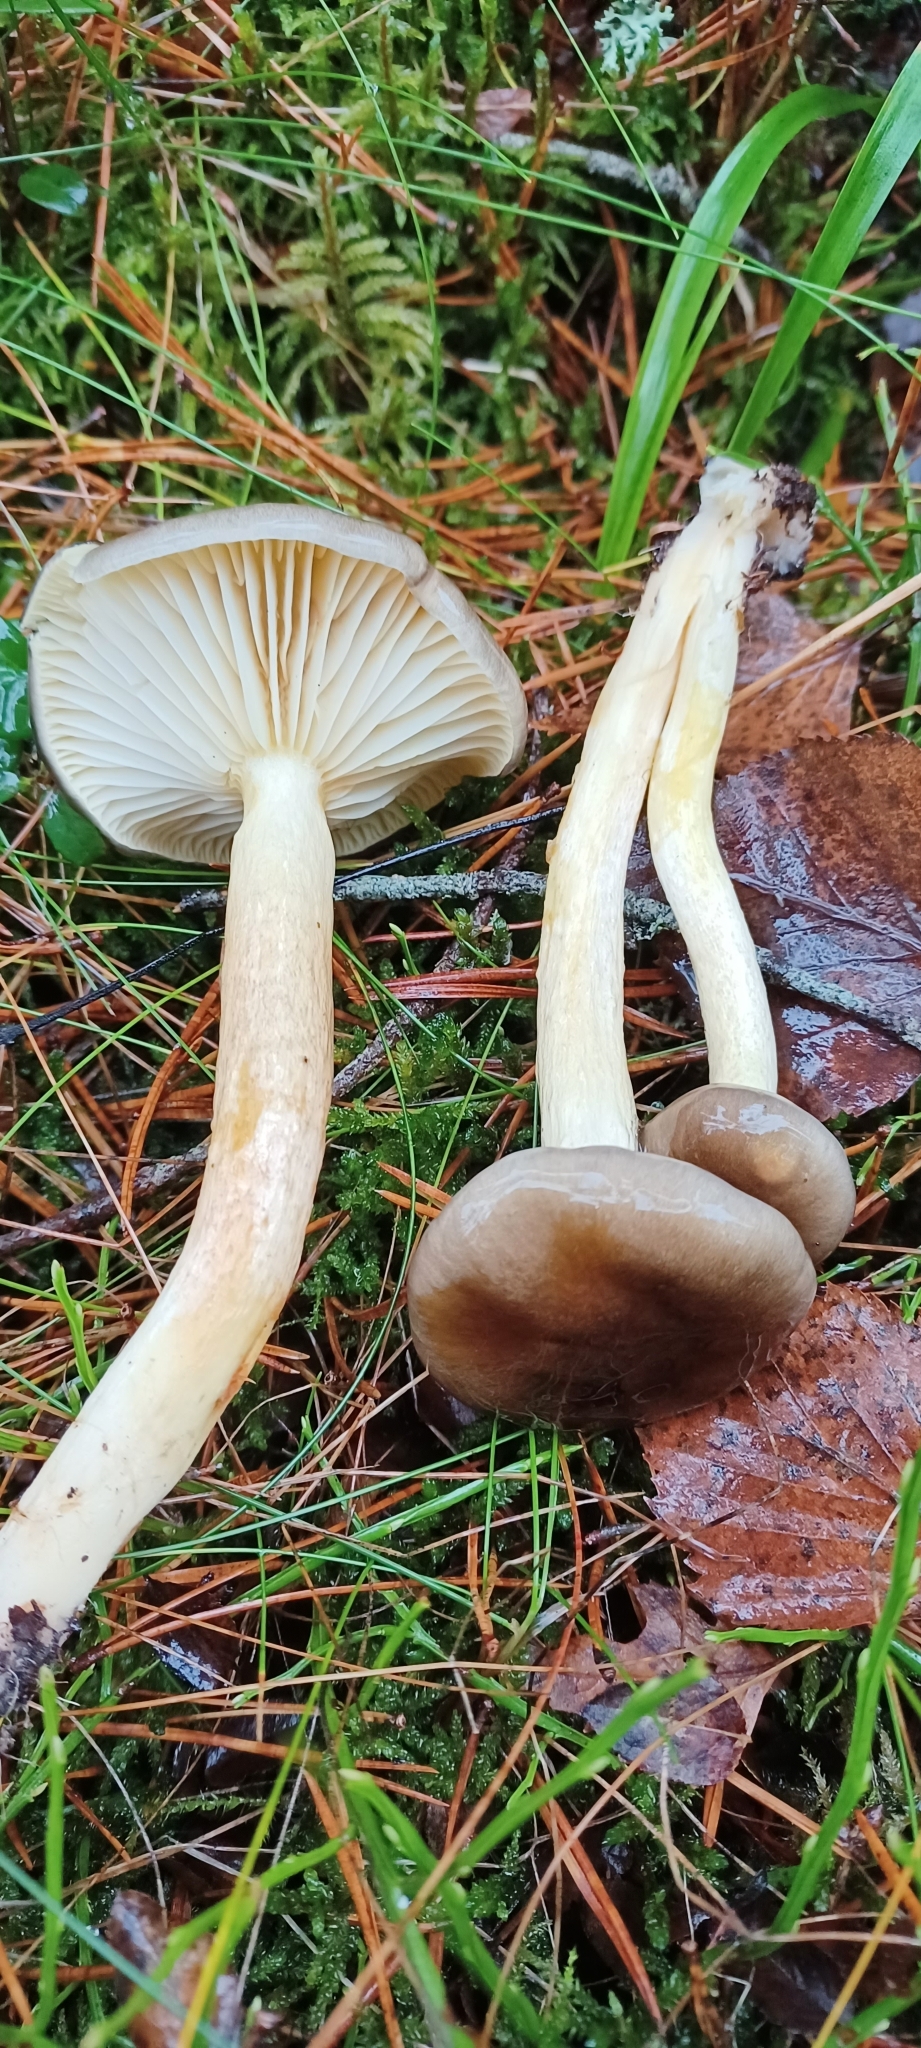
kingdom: Fungi
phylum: Basidiomycota
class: Agaricomycetes
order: Agaricales
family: Hygrophoraceae
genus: Hygrophorus
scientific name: Hygrophorus hypothejus
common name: Herald of winter
